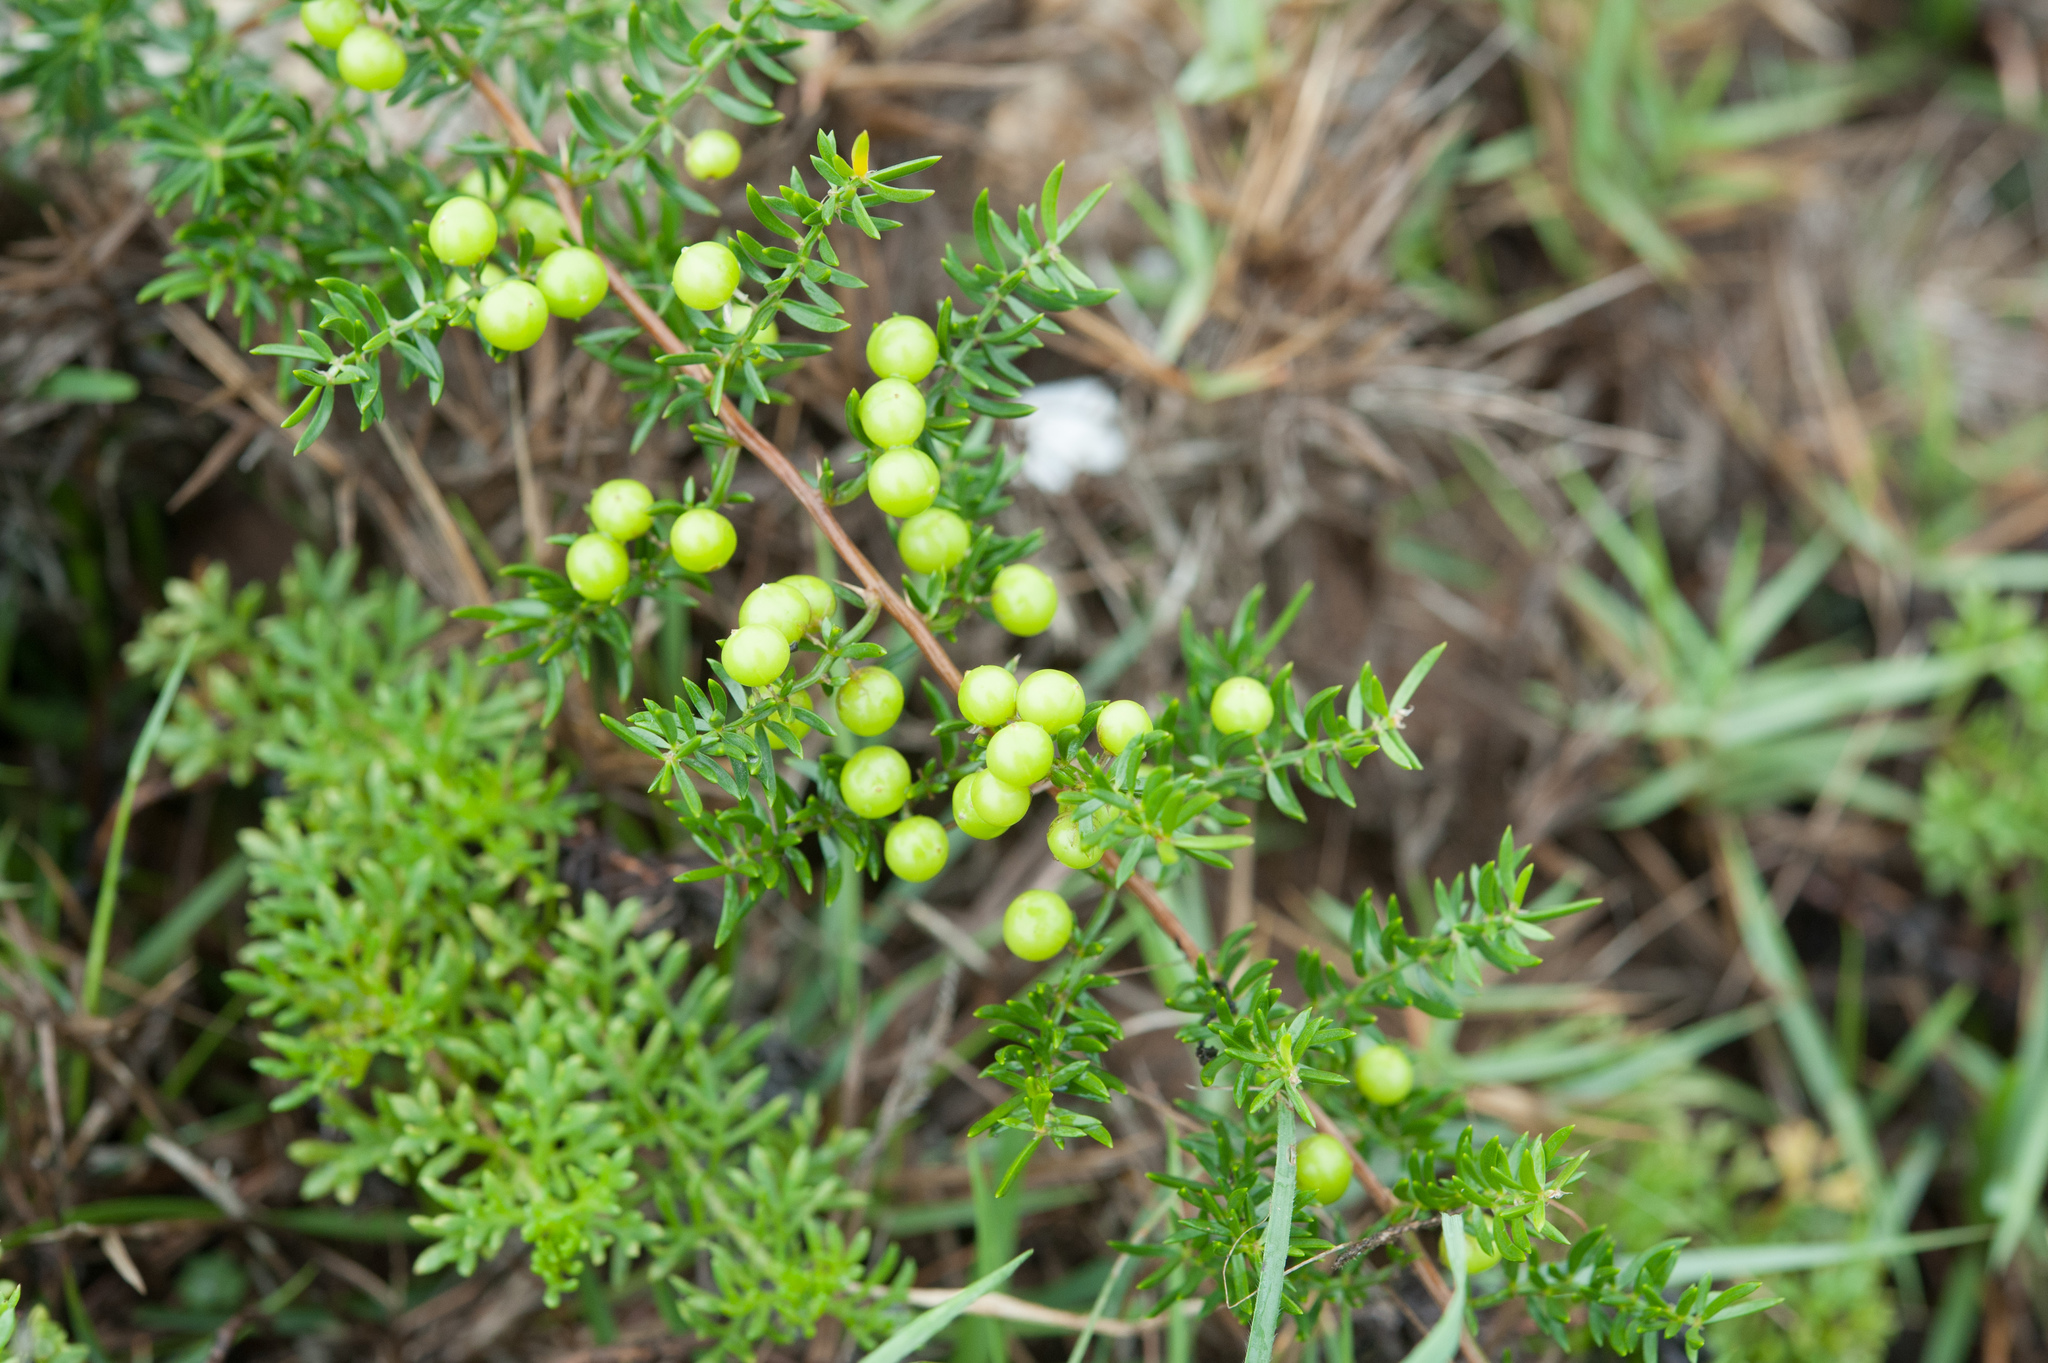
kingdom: Plantae
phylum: Tracheophyta
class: Liliopsida
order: Asparagales
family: Asparagaceae
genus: Asparagus
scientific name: Asparagus cochinchinensis
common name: Chinese asparagus
